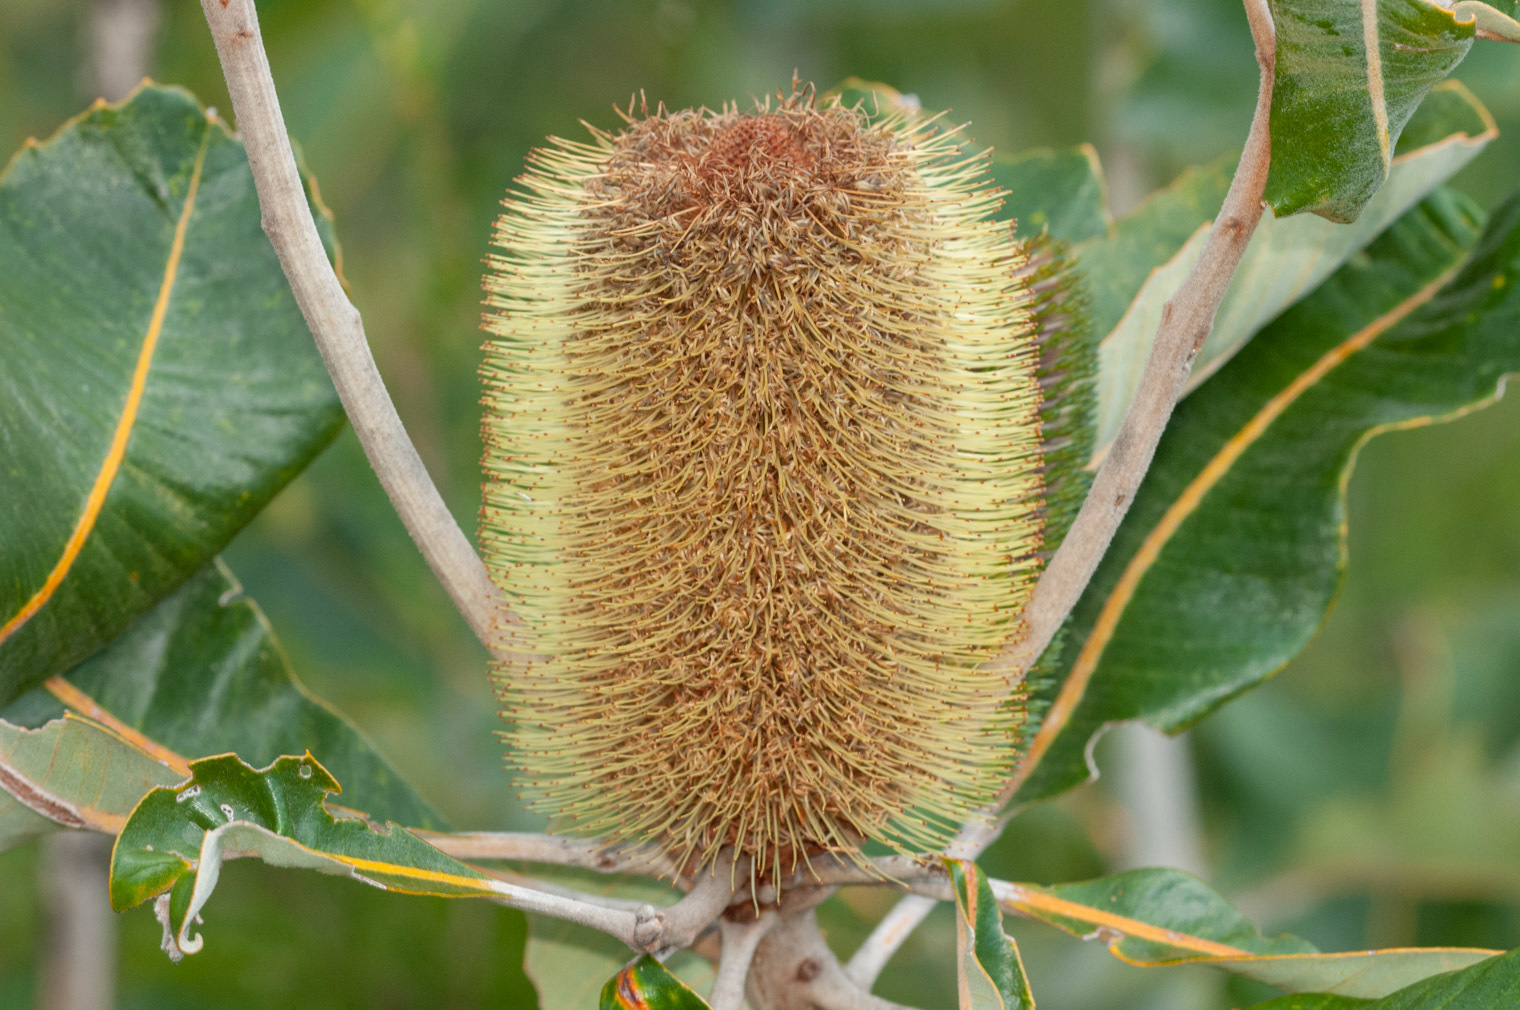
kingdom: Plantae
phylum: Tracheophyta
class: Magnoliopsida
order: Proteales
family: Proteaceae
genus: Banksia
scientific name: Banksia robur
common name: Broadleaf banksia
